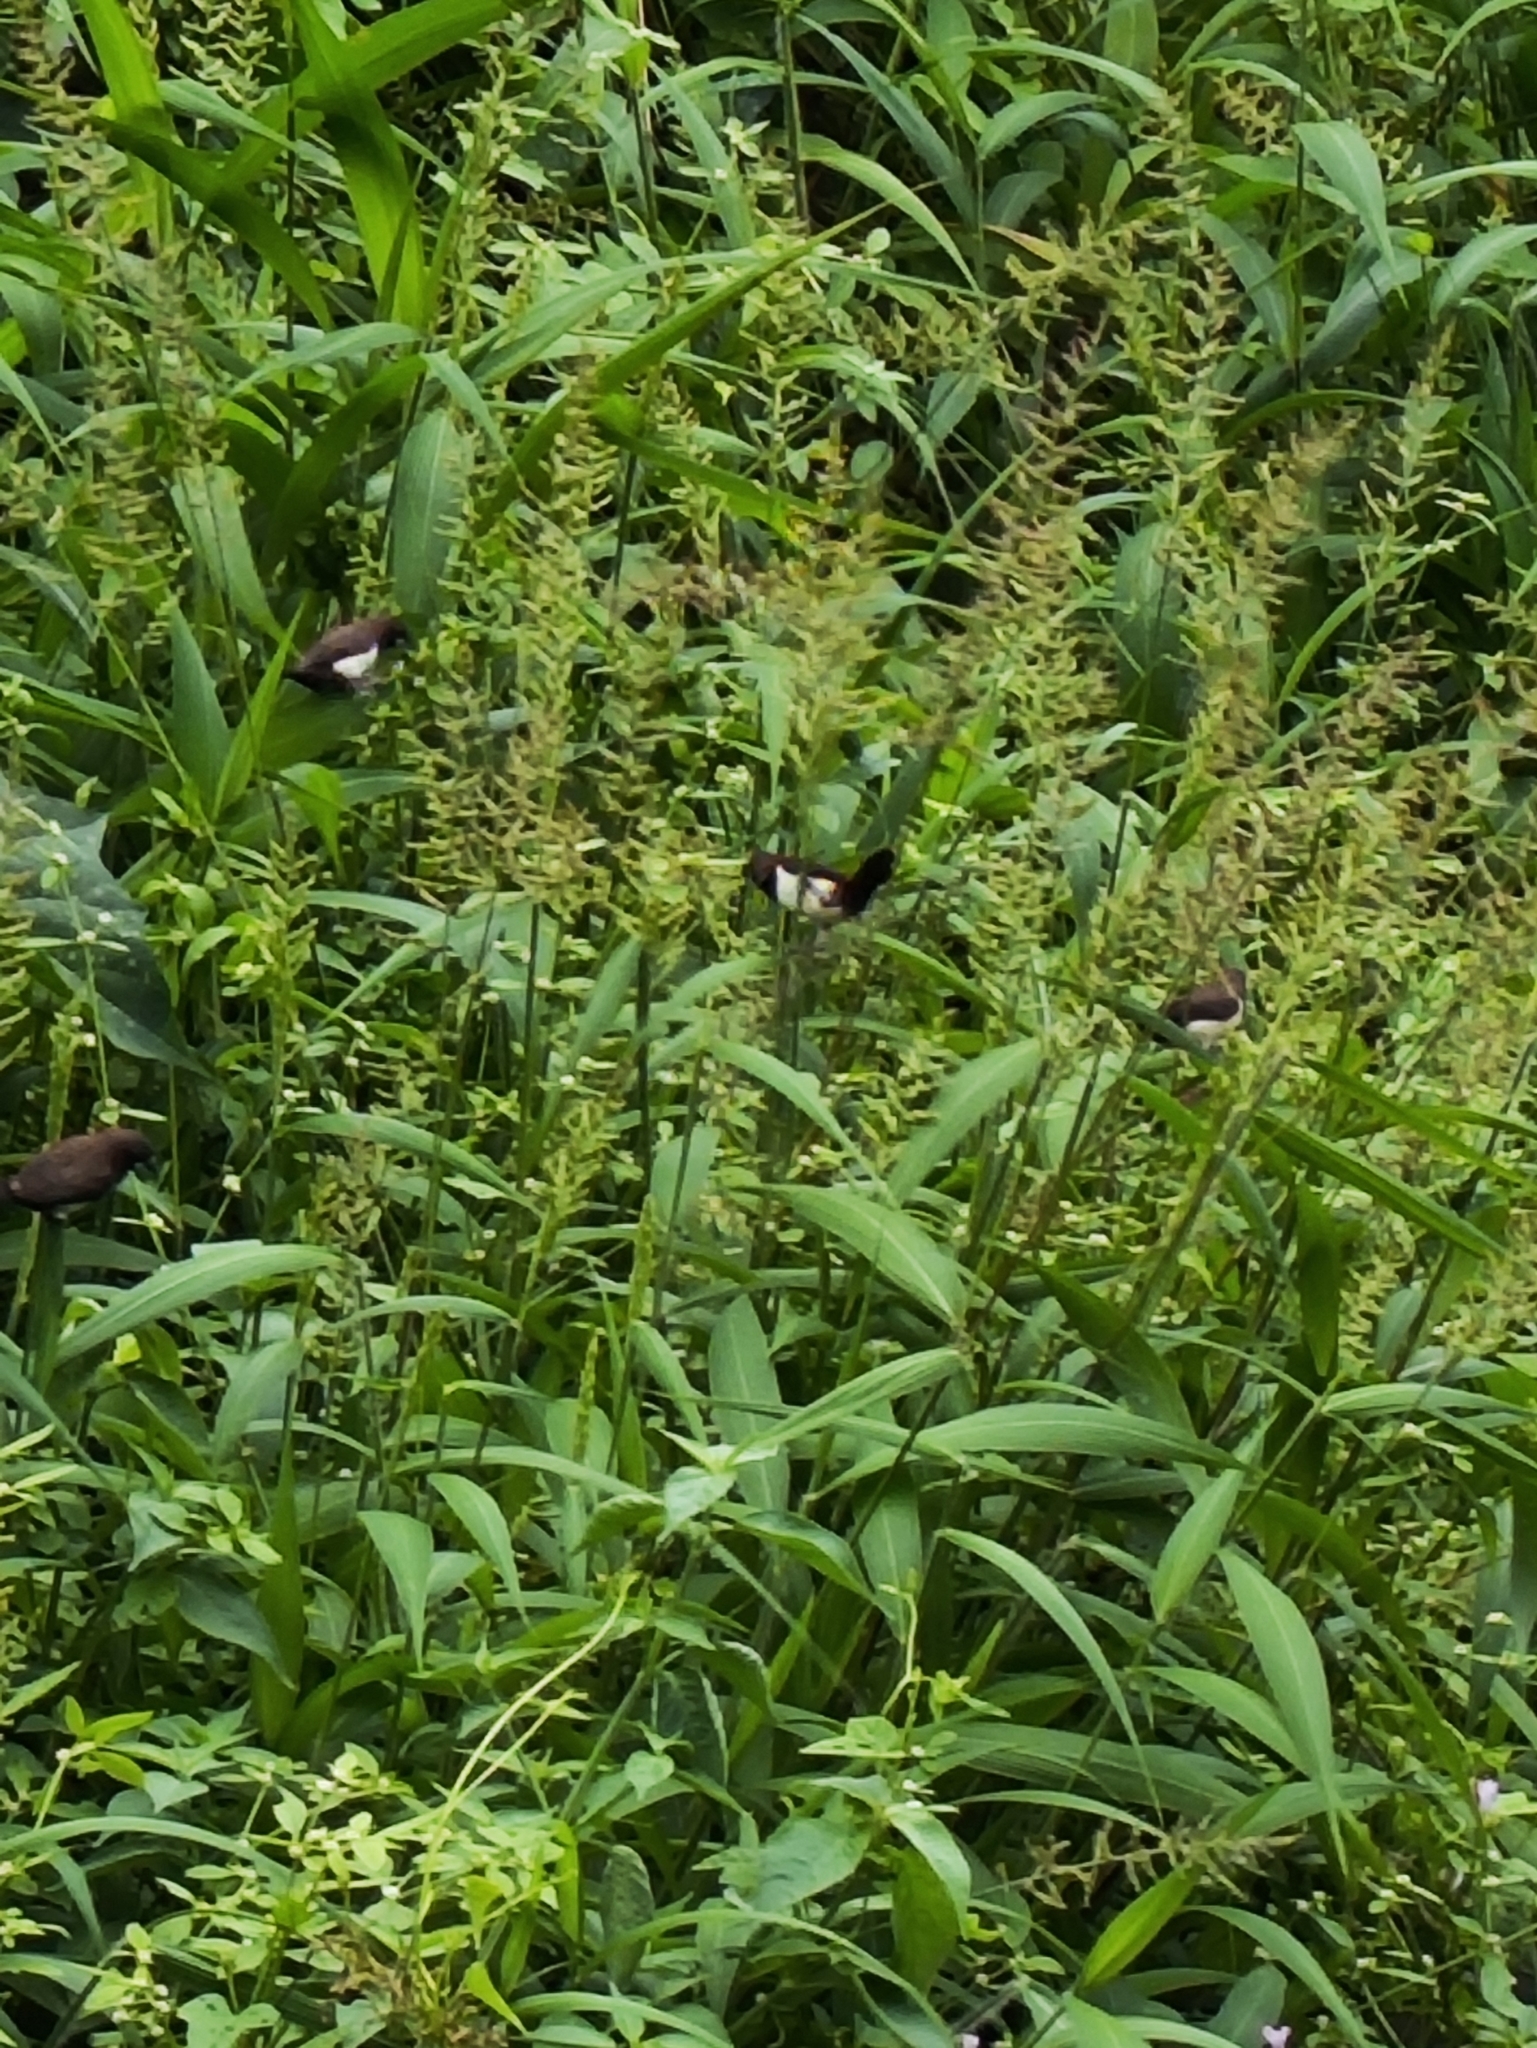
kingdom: Animalia
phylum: Chordata
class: Aves
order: Passeriformes
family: Estrildidae
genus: Lonchura
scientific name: Lonchura striata
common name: White-rumped munia
